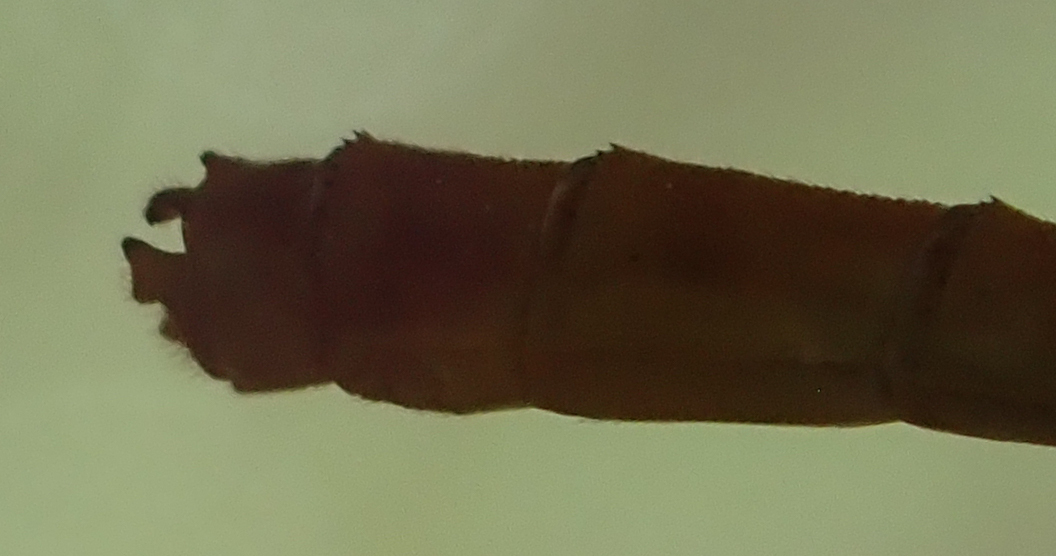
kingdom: Animalia
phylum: Arthropoda
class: Insecta
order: Odonata
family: Coenagrionidae
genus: Ceriagrion
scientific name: Ceriagrion glabrum
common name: Common pond damsel
